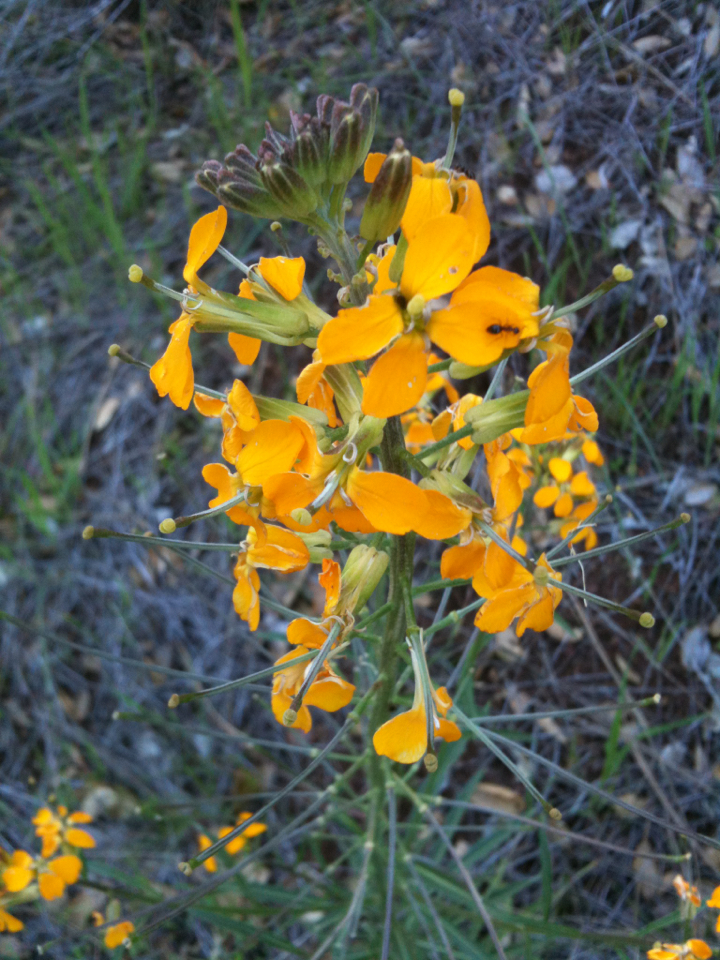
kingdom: Plantae
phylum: Tracheophyta
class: Magnoliopsida
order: Brassicales
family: Brassicaceae
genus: Erysimum
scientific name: Erysimum capitatum
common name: Western wallflower
